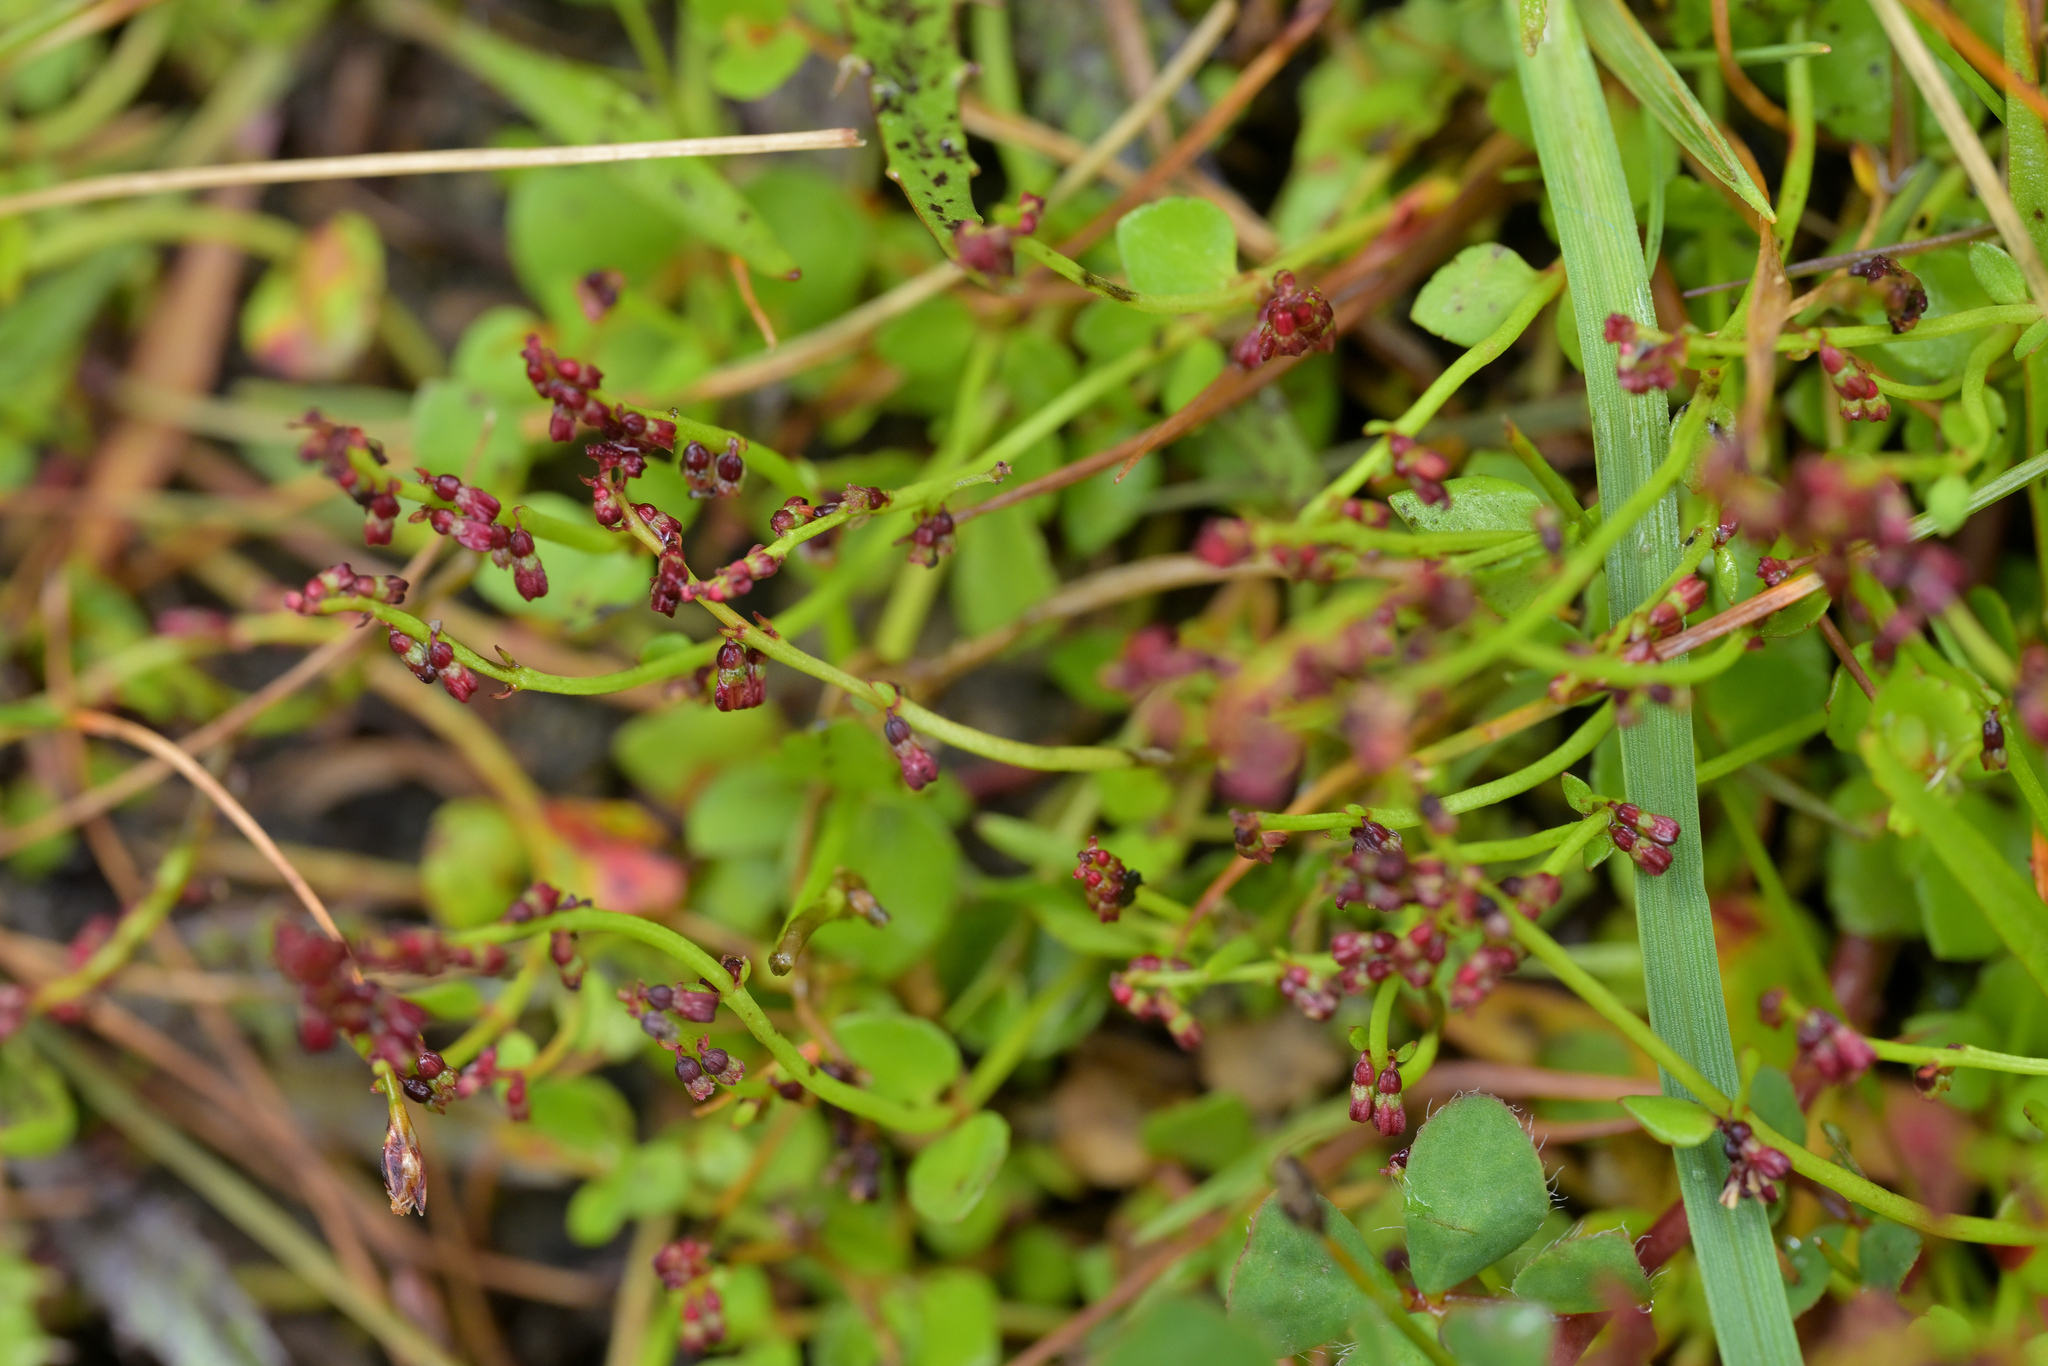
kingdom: Plantae
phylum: Tracheophyta
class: Magnoliopsida
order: Saxifragales
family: Haloragaceae
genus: Gonocarpus
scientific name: Gonocarpus micranthus
